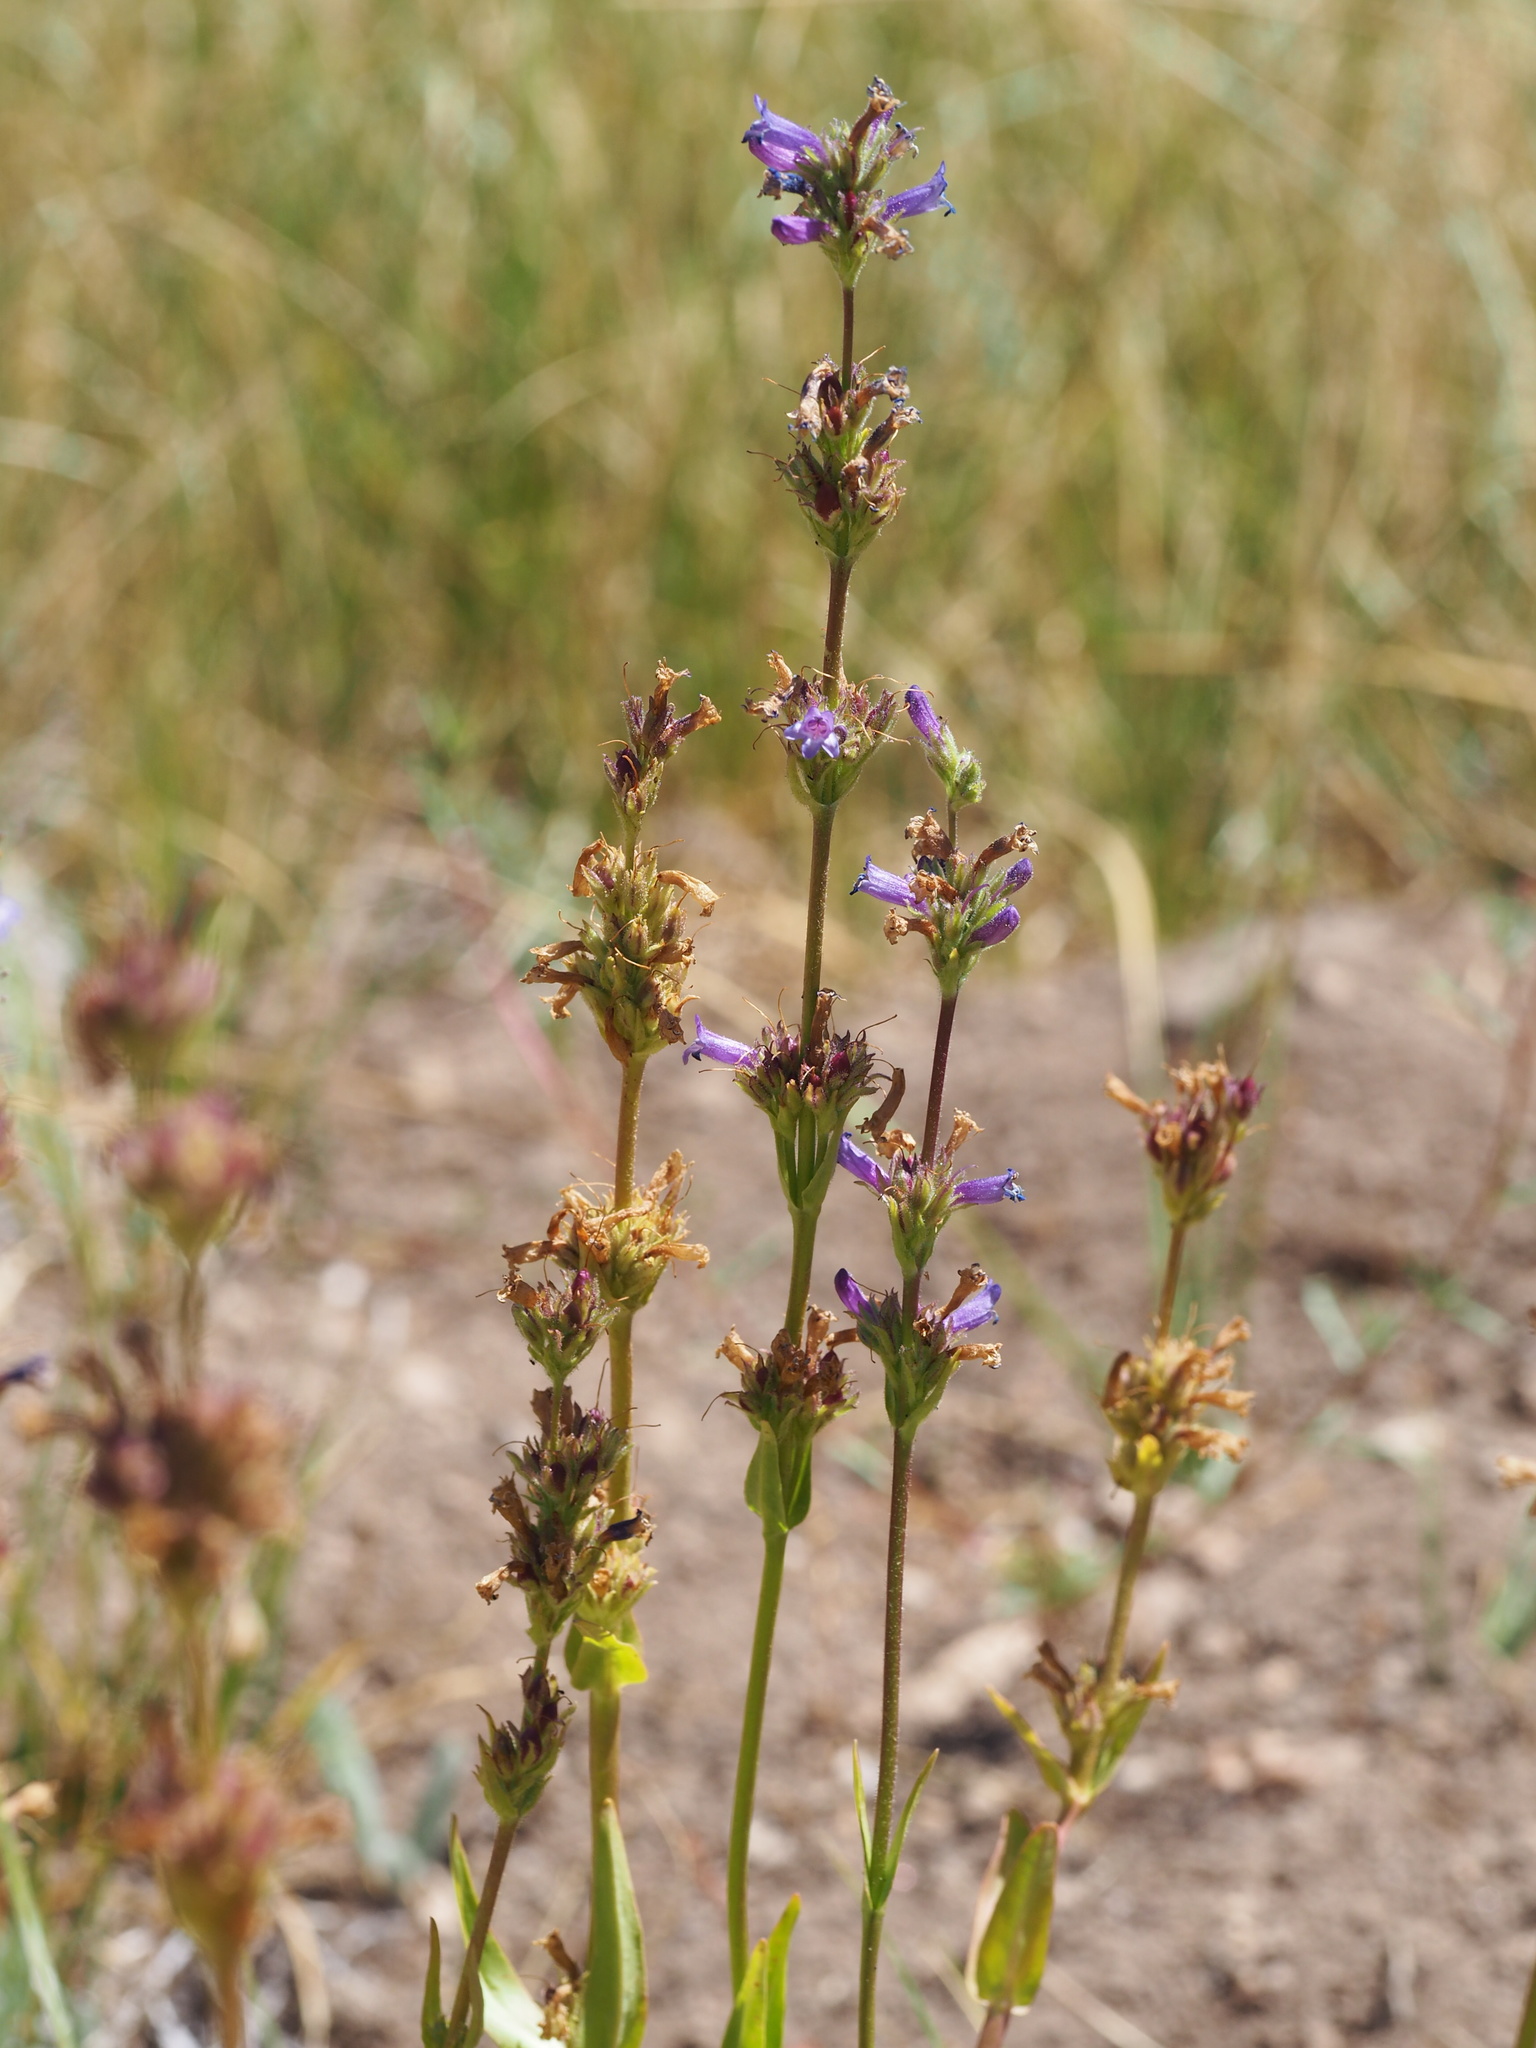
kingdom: Plantae
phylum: Tracheophyta
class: Magnoliopsida
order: Lamiales
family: Plantaginaceae
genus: Penstemon
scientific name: Penstemon heterodoxus
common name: Sierran penstemon
